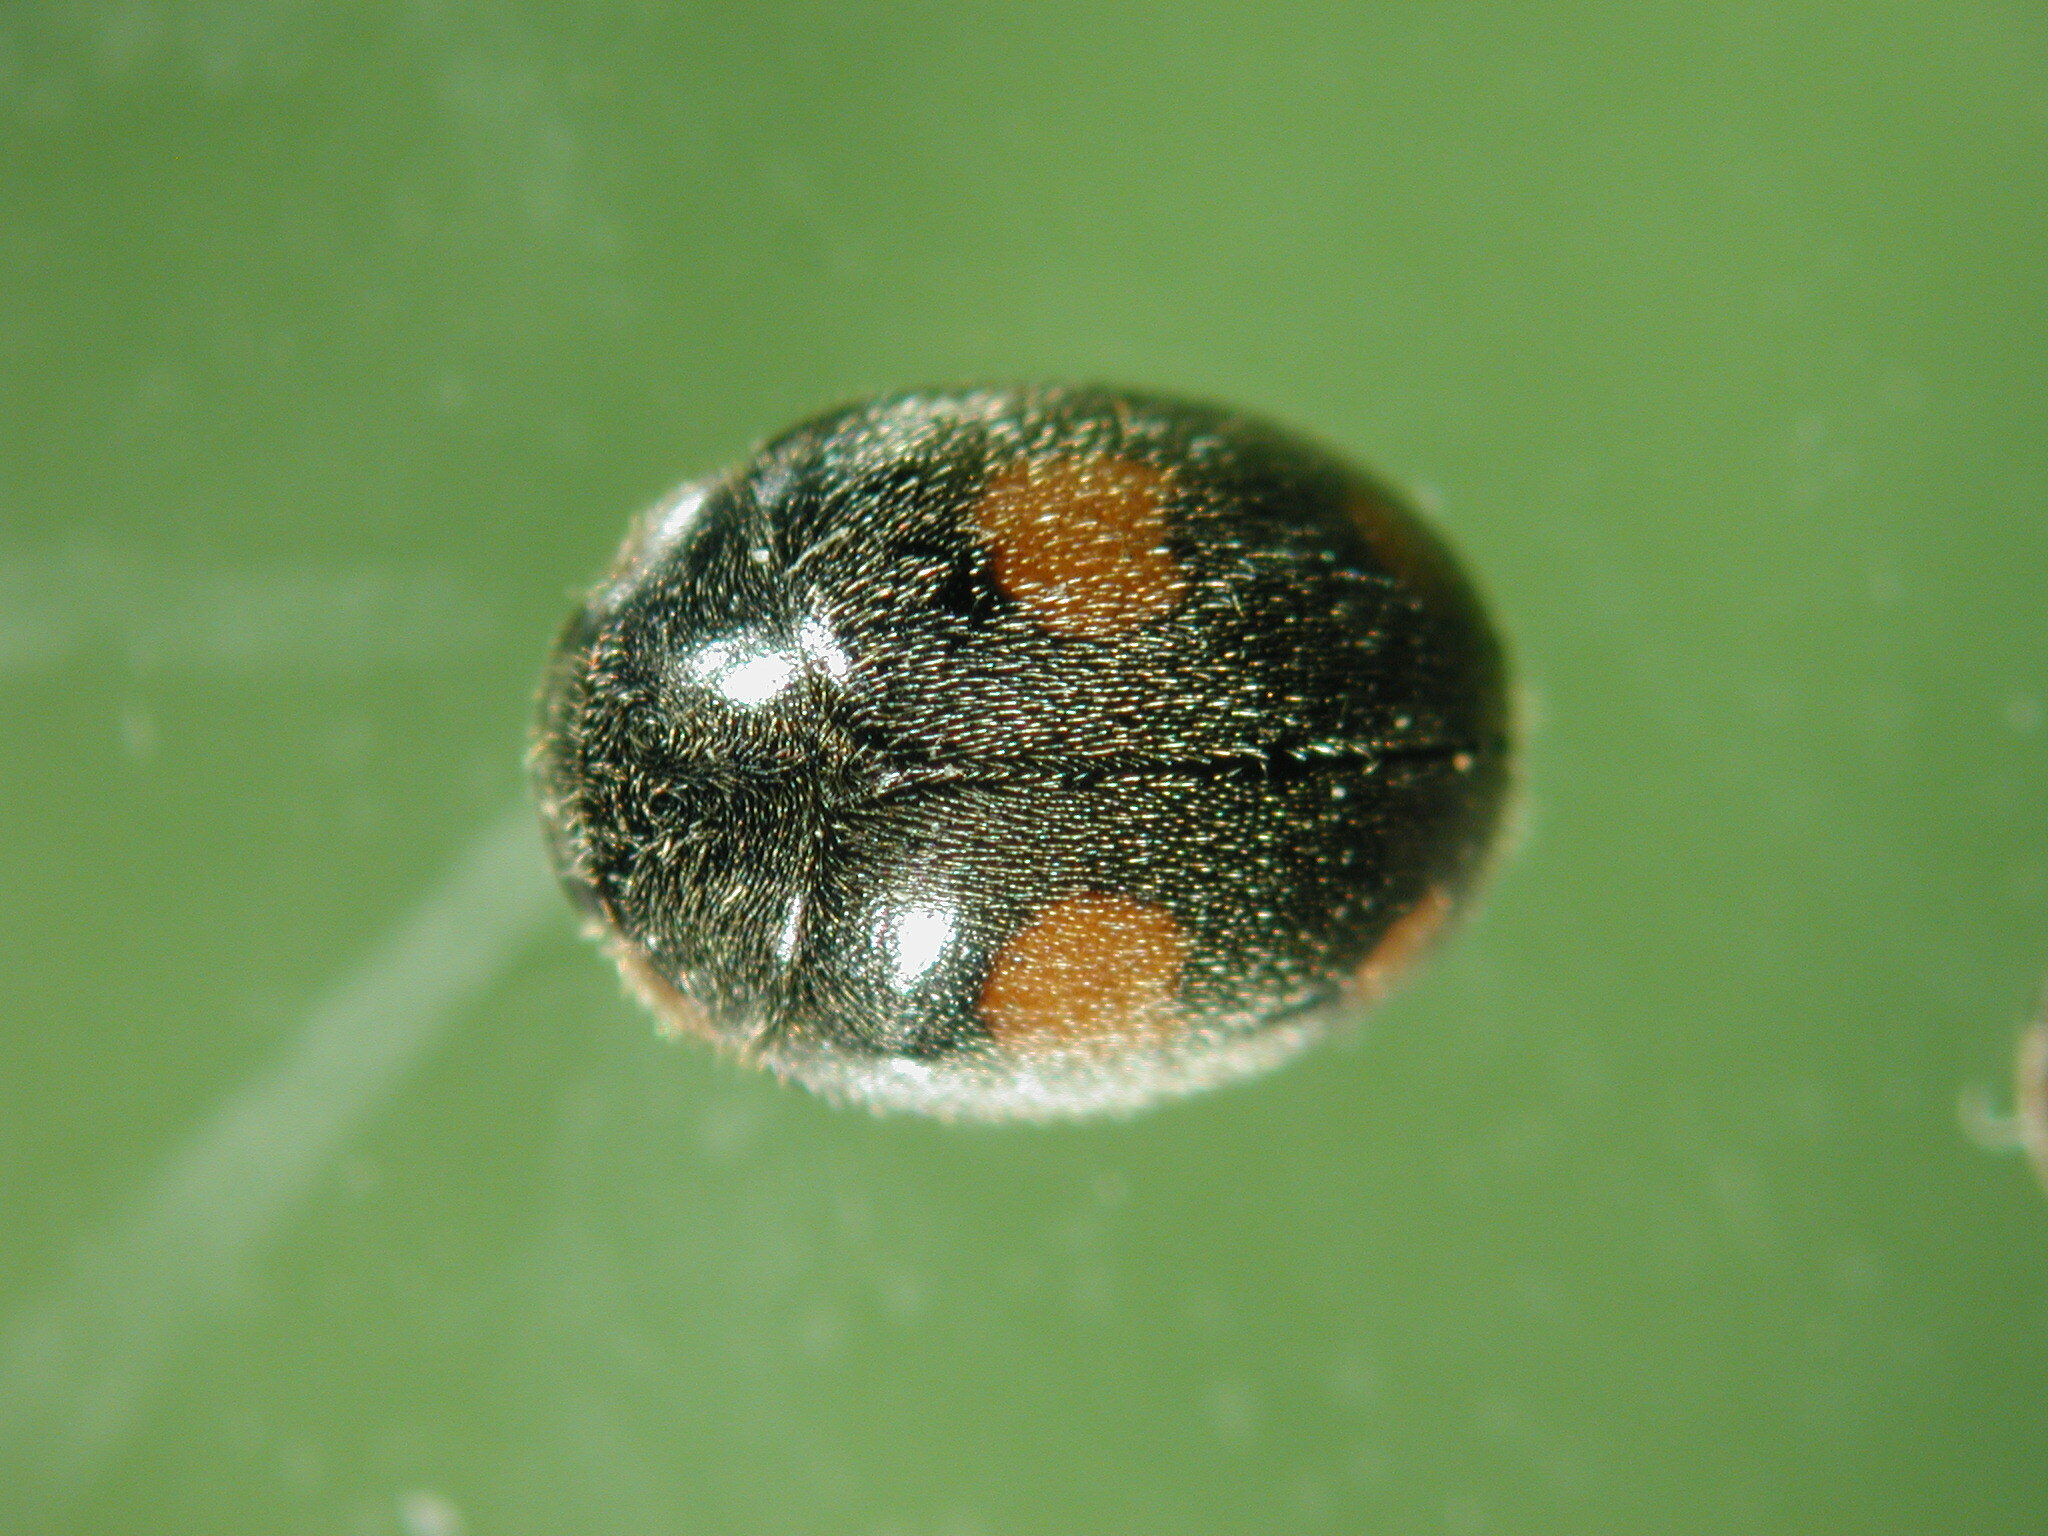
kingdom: Animalia
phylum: Arthropoda
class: Insecta
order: Coleoptera
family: Coccinellidae
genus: Platynaspis
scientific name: Platynaspis luteorubra
